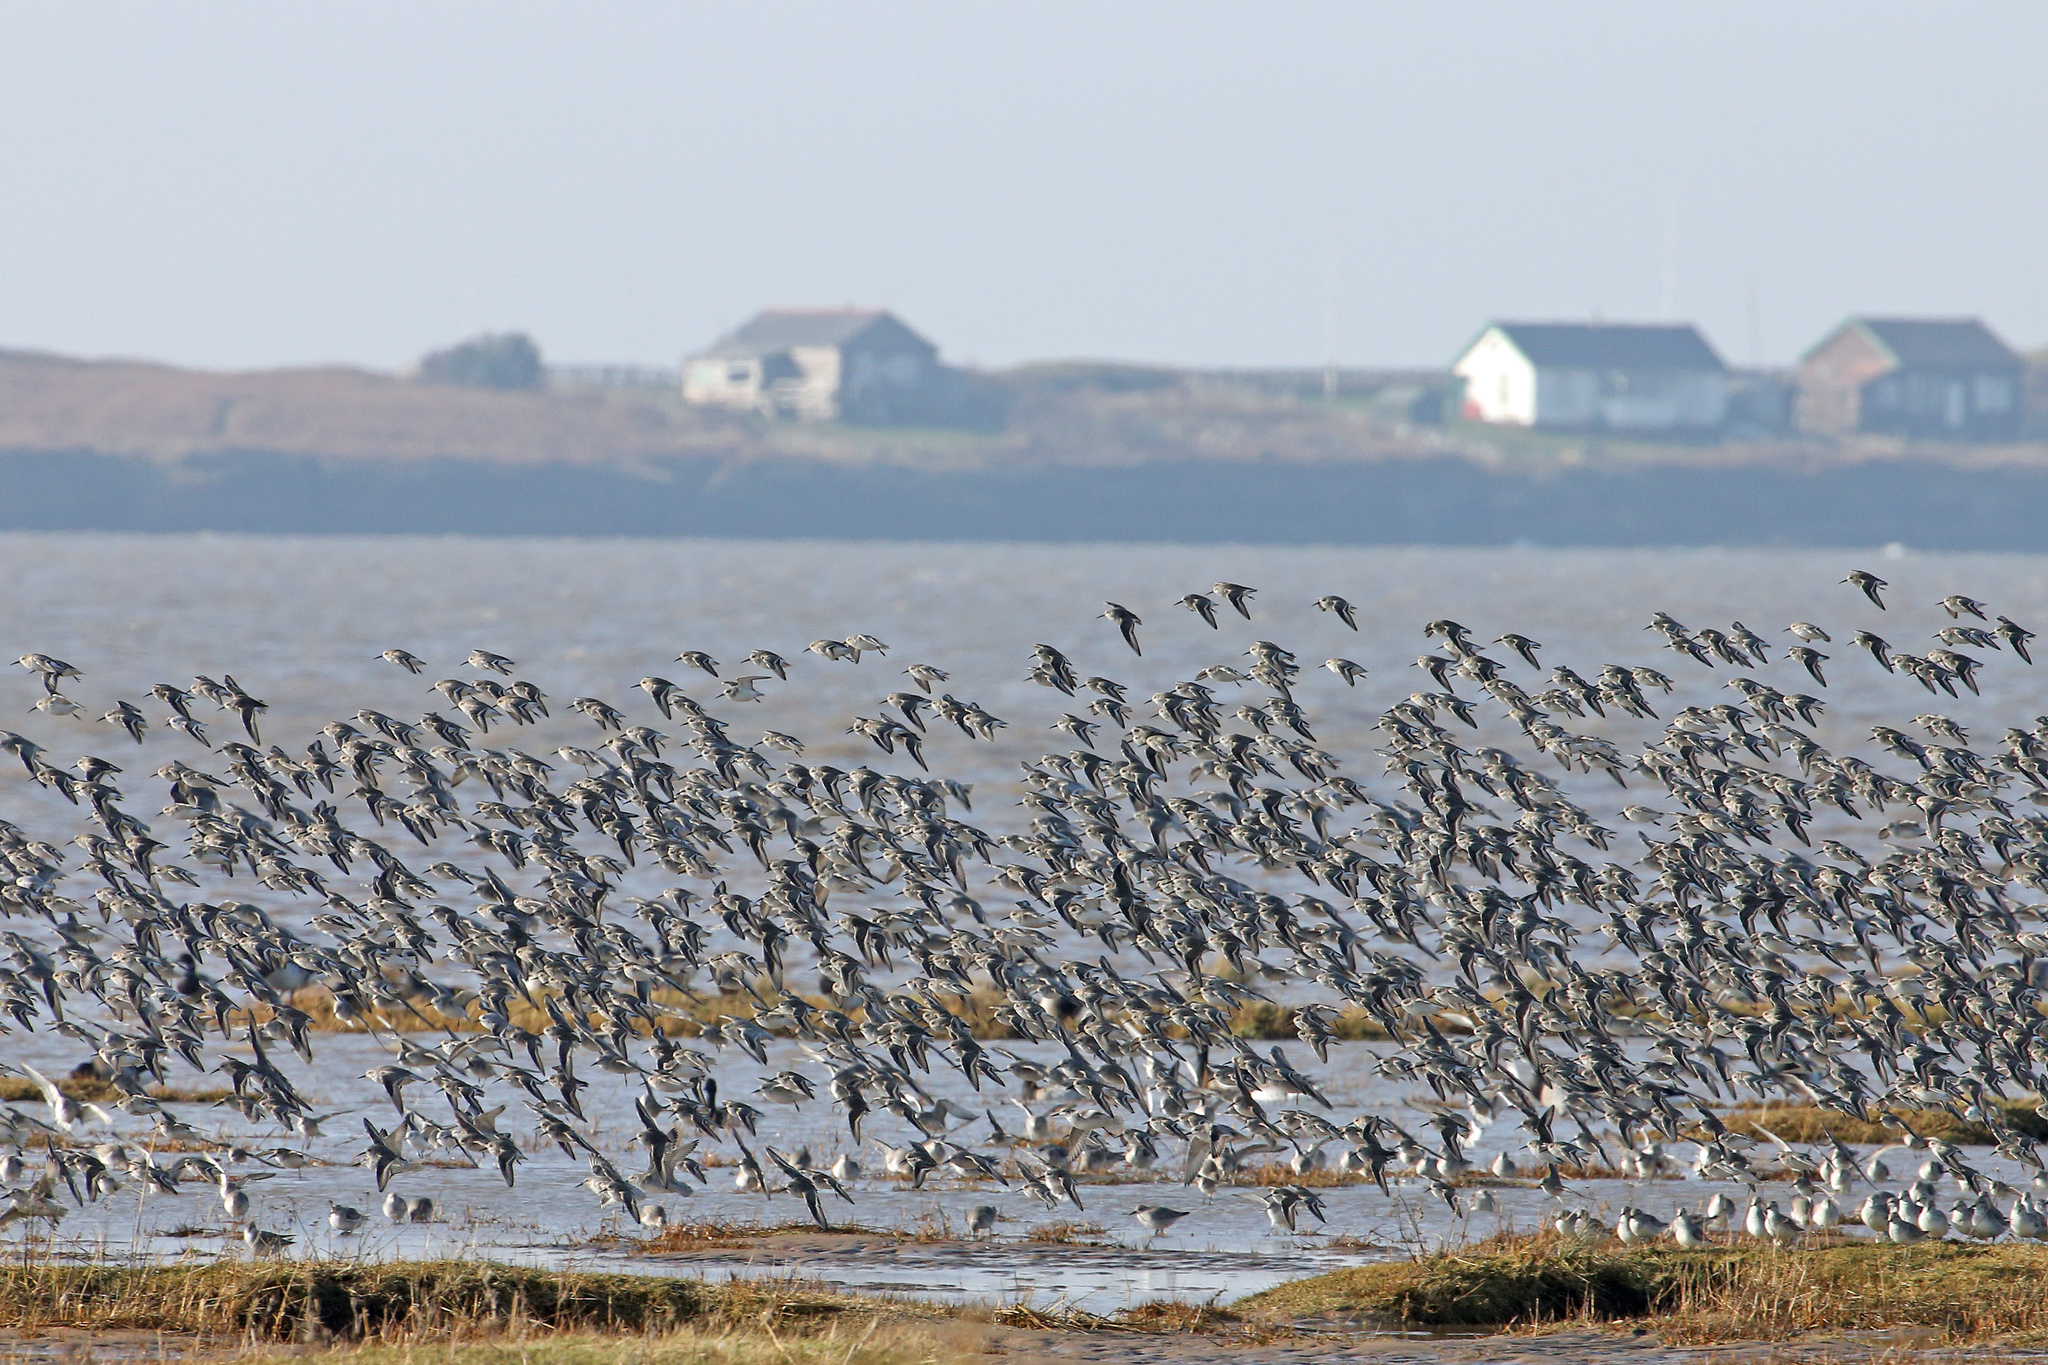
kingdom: Animalia
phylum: Chordata
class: Aves
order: Charadriiformes
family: Scolopacidae
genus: Calidris
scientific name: Calidris alpina
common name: Dunlin
